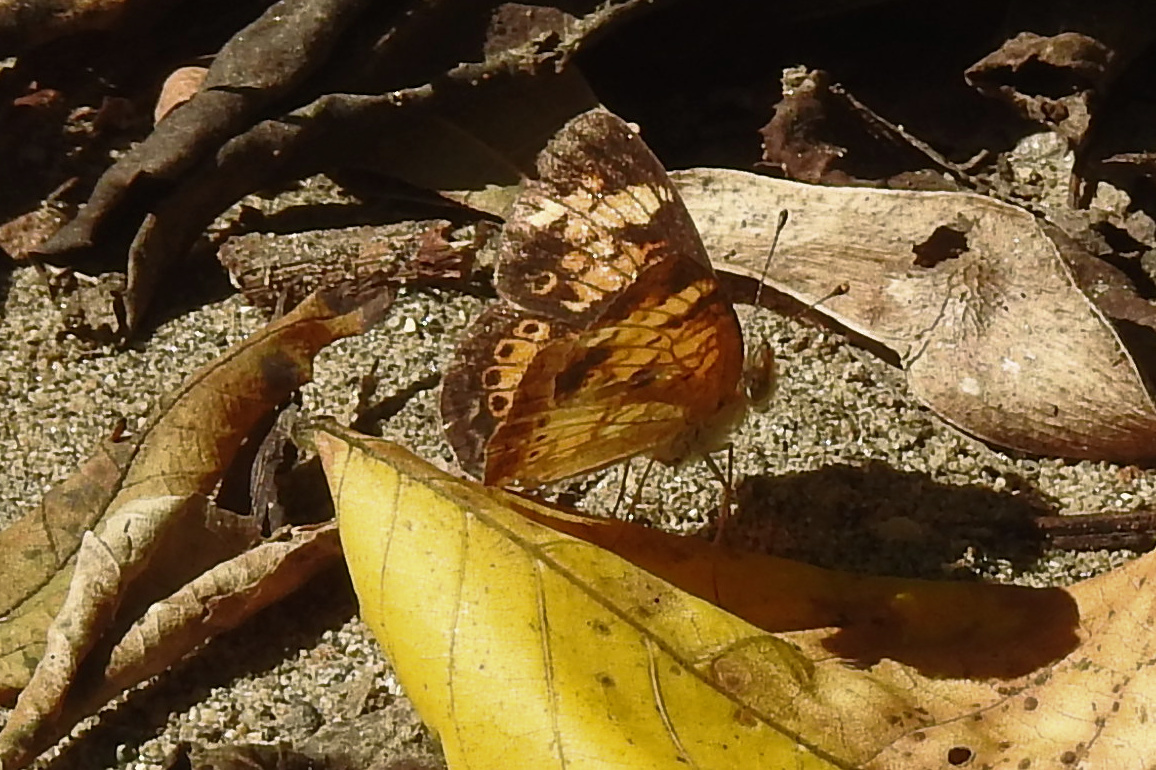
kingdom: Animalia
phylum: Arthropoda
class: Insecta
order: Lepidoptera
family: Nymphalidae
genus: Phyciodes
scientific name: Phyciodes tharos
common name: Pearl crescent
